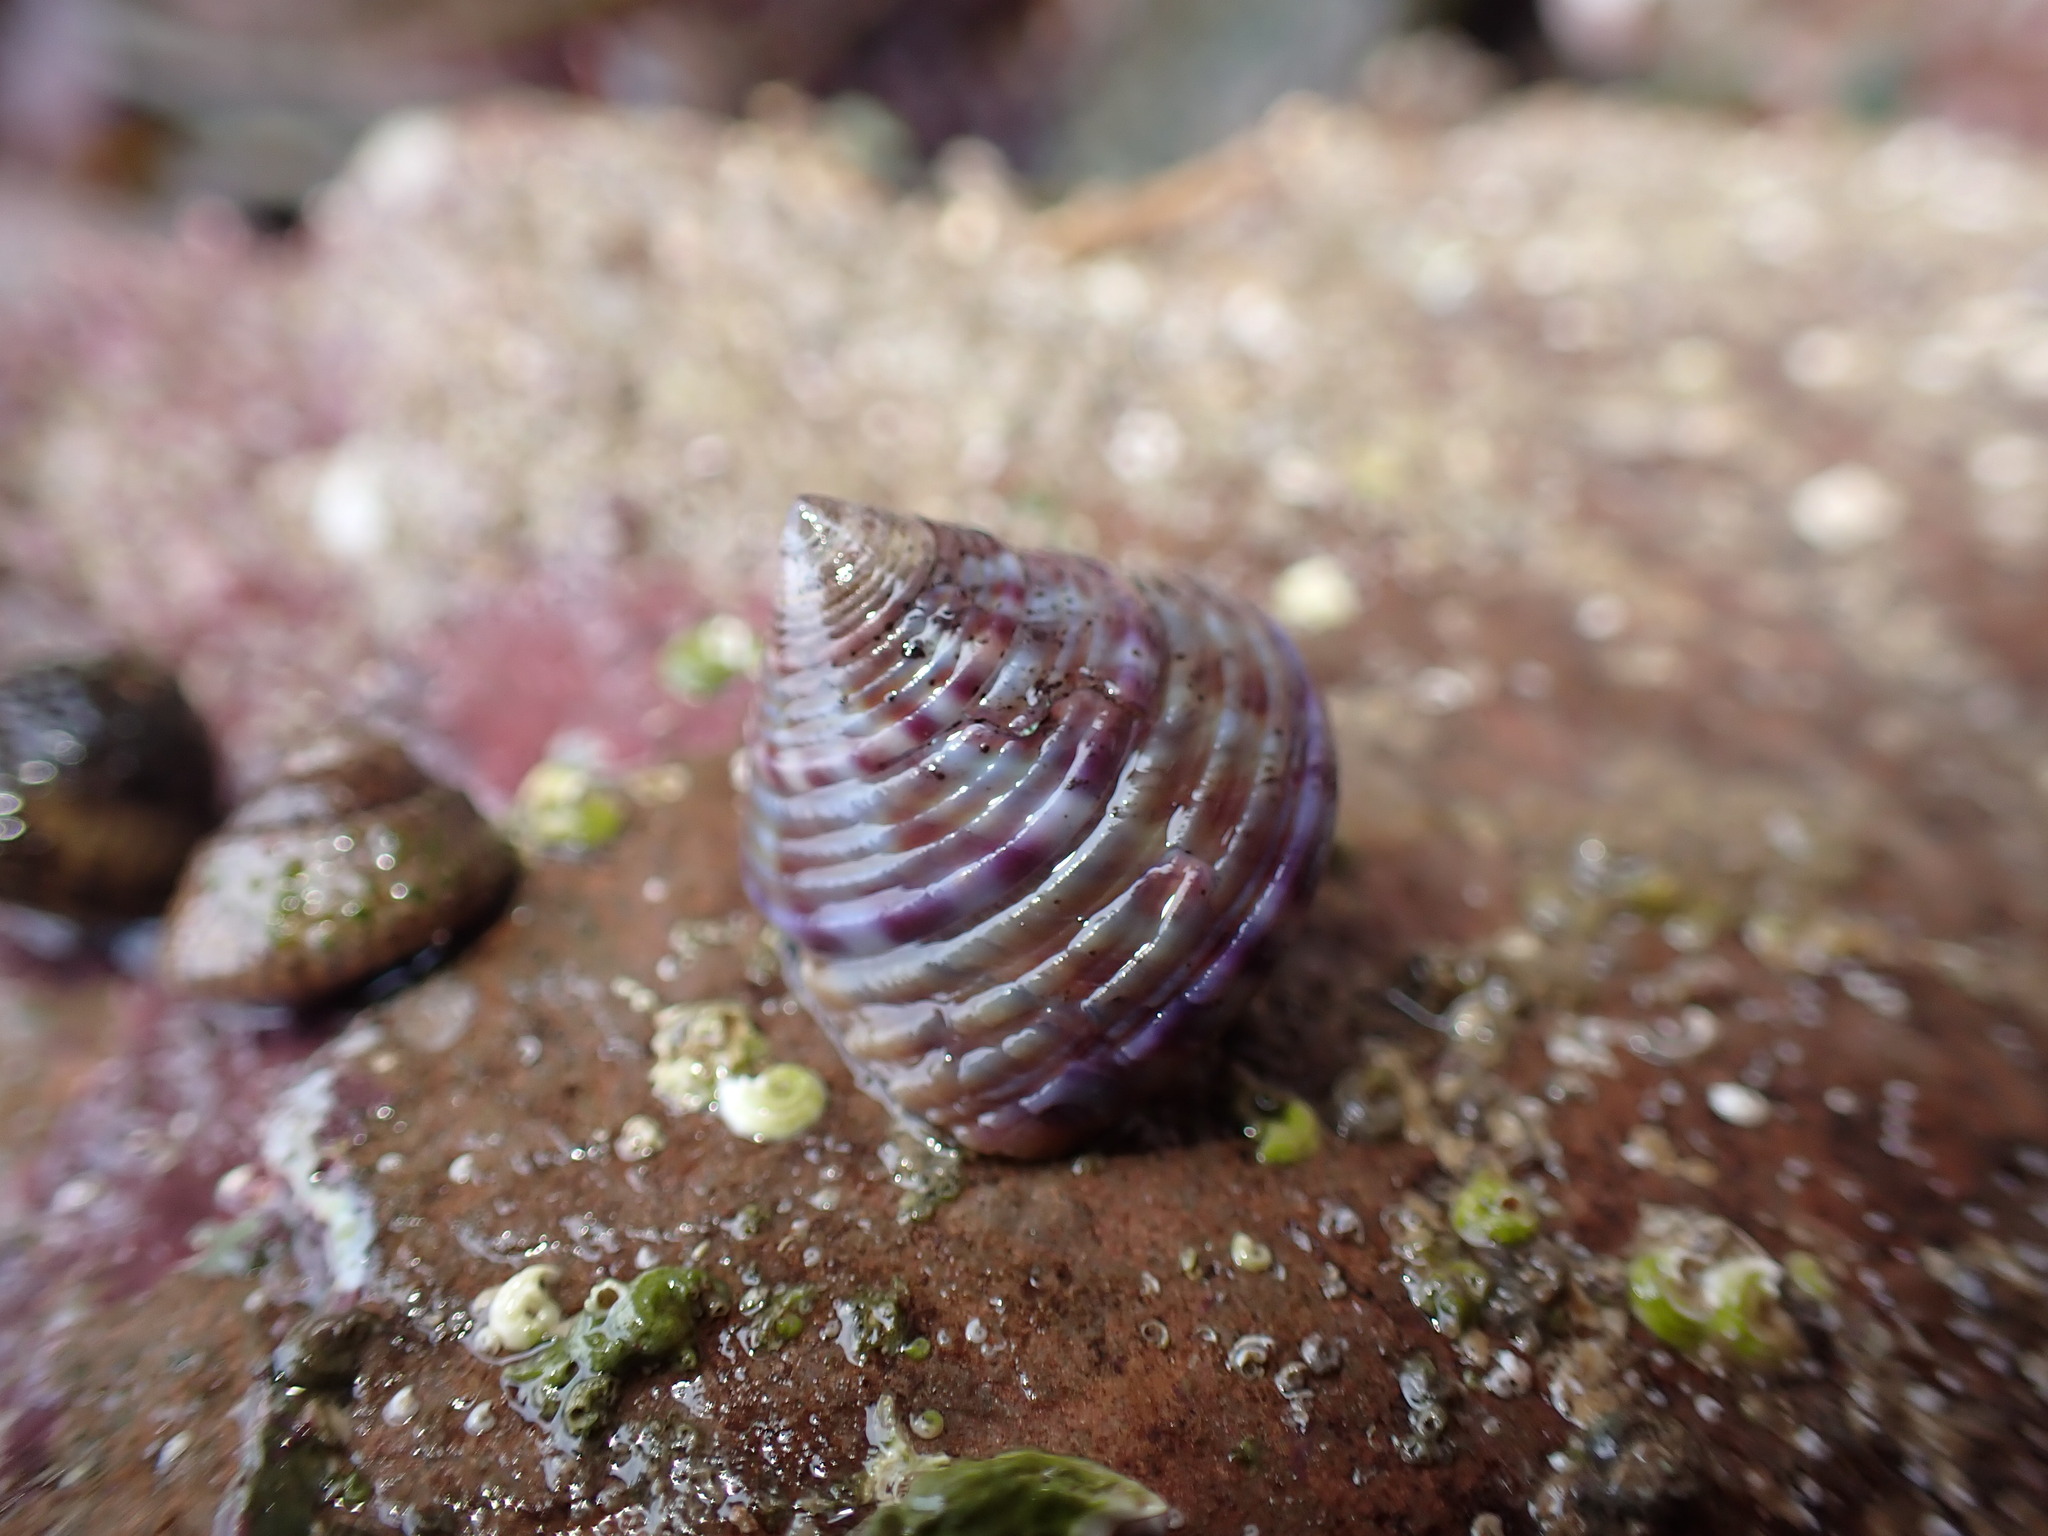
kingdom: Animalia
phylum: Mollusca
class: Gastropoda
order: Trochida
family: Calliostomatidae
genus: Calliostoma
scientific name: Calliostoma zizyphinum
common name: Painted top shell
